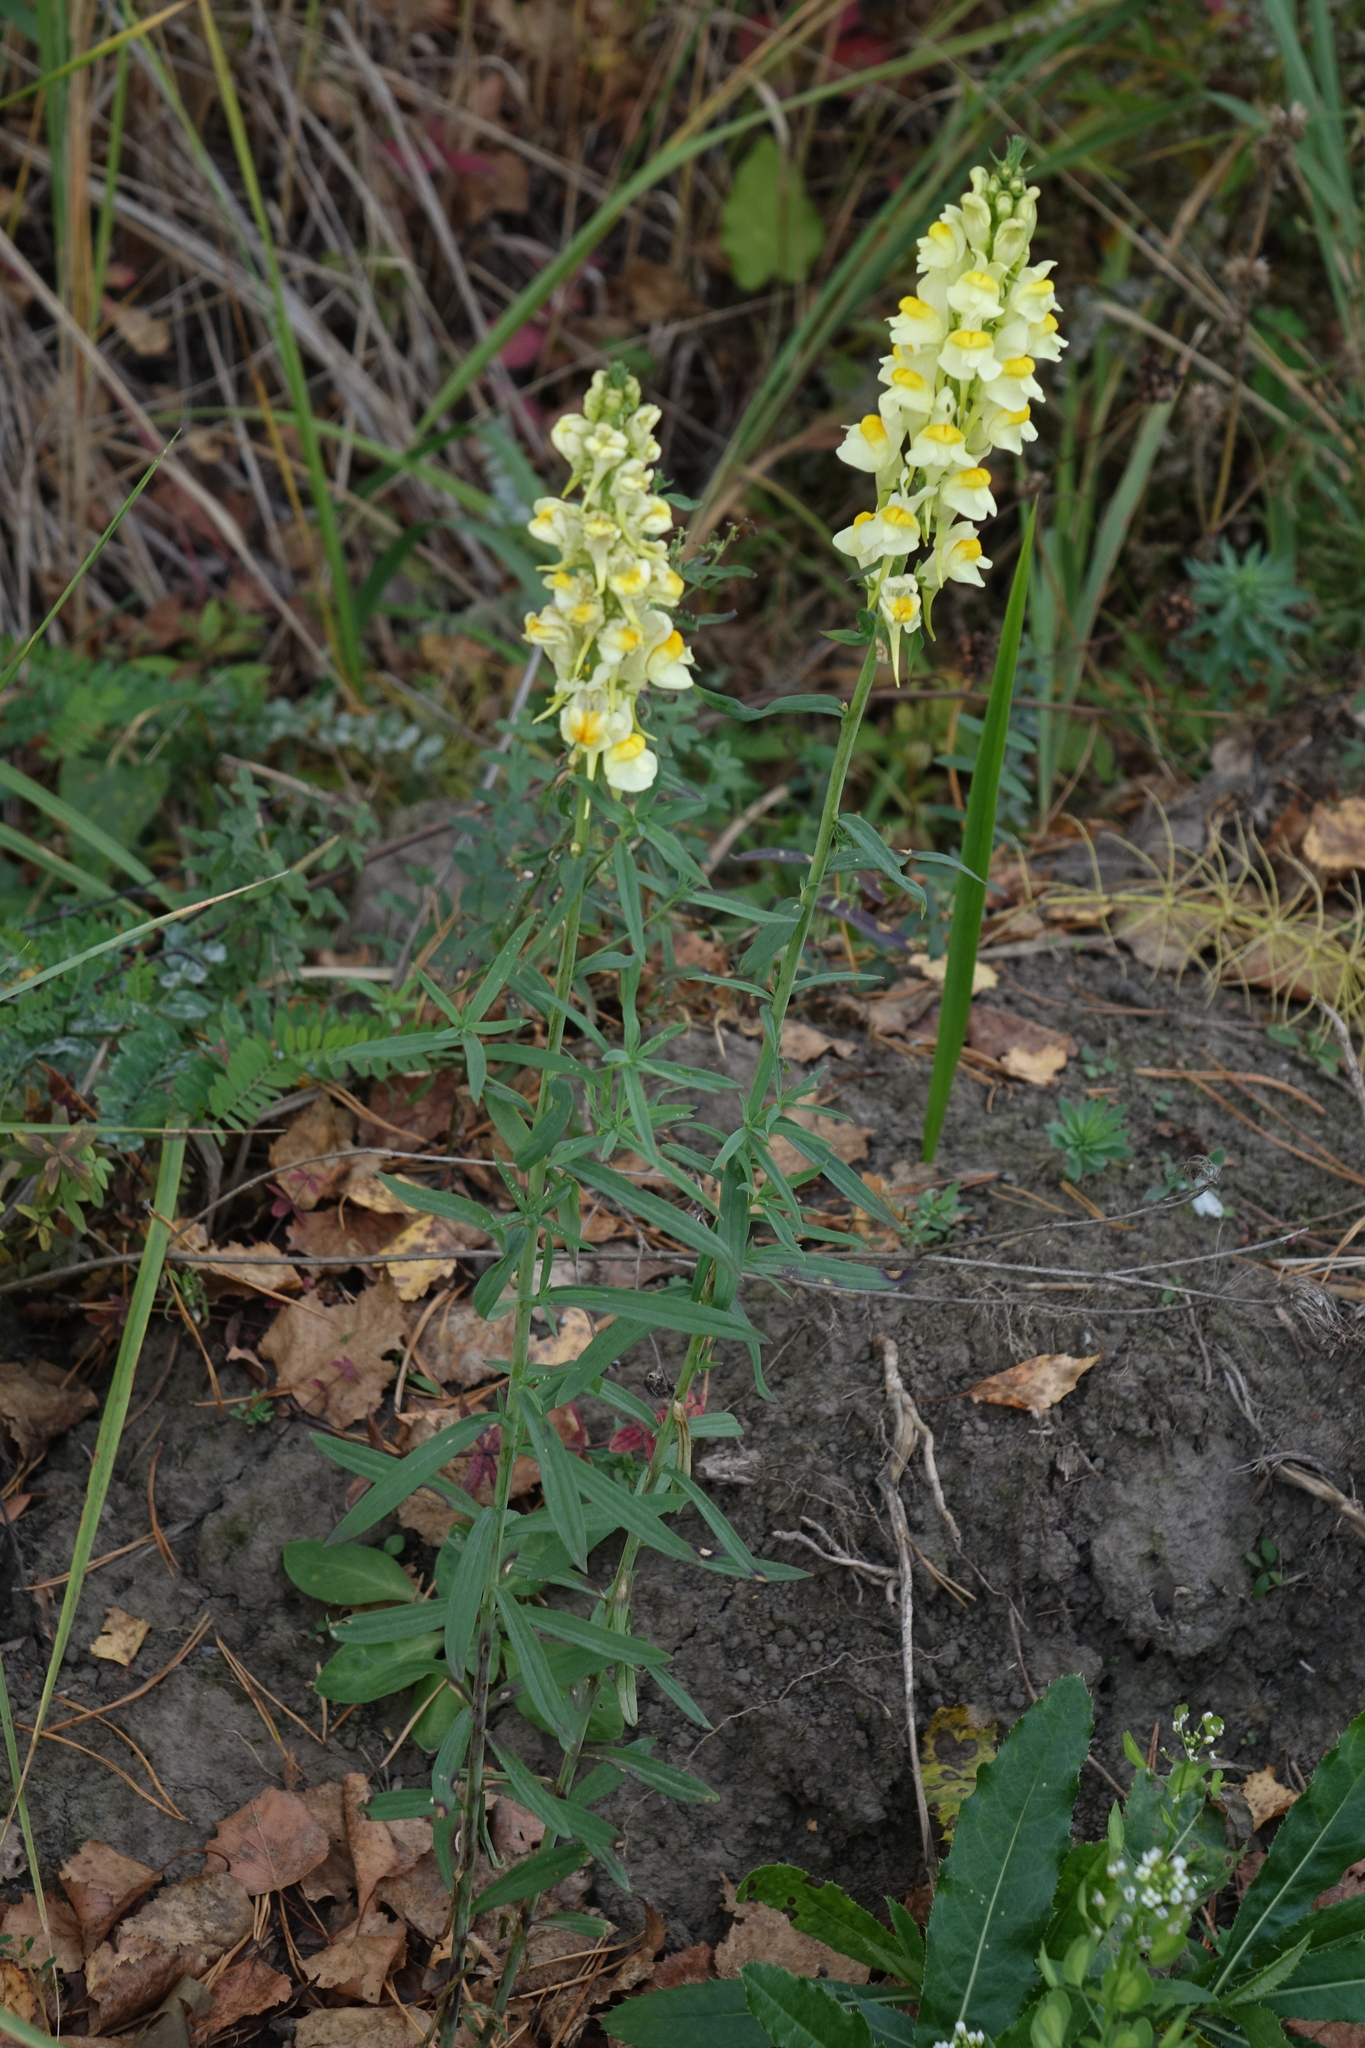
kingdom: Plantae
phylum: Tracheophyta
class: Magnoliopsida
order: Lamiales
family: Plantaginaceae
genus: Linaria
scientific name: Linaria vulgaris
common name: Butter and eggs
